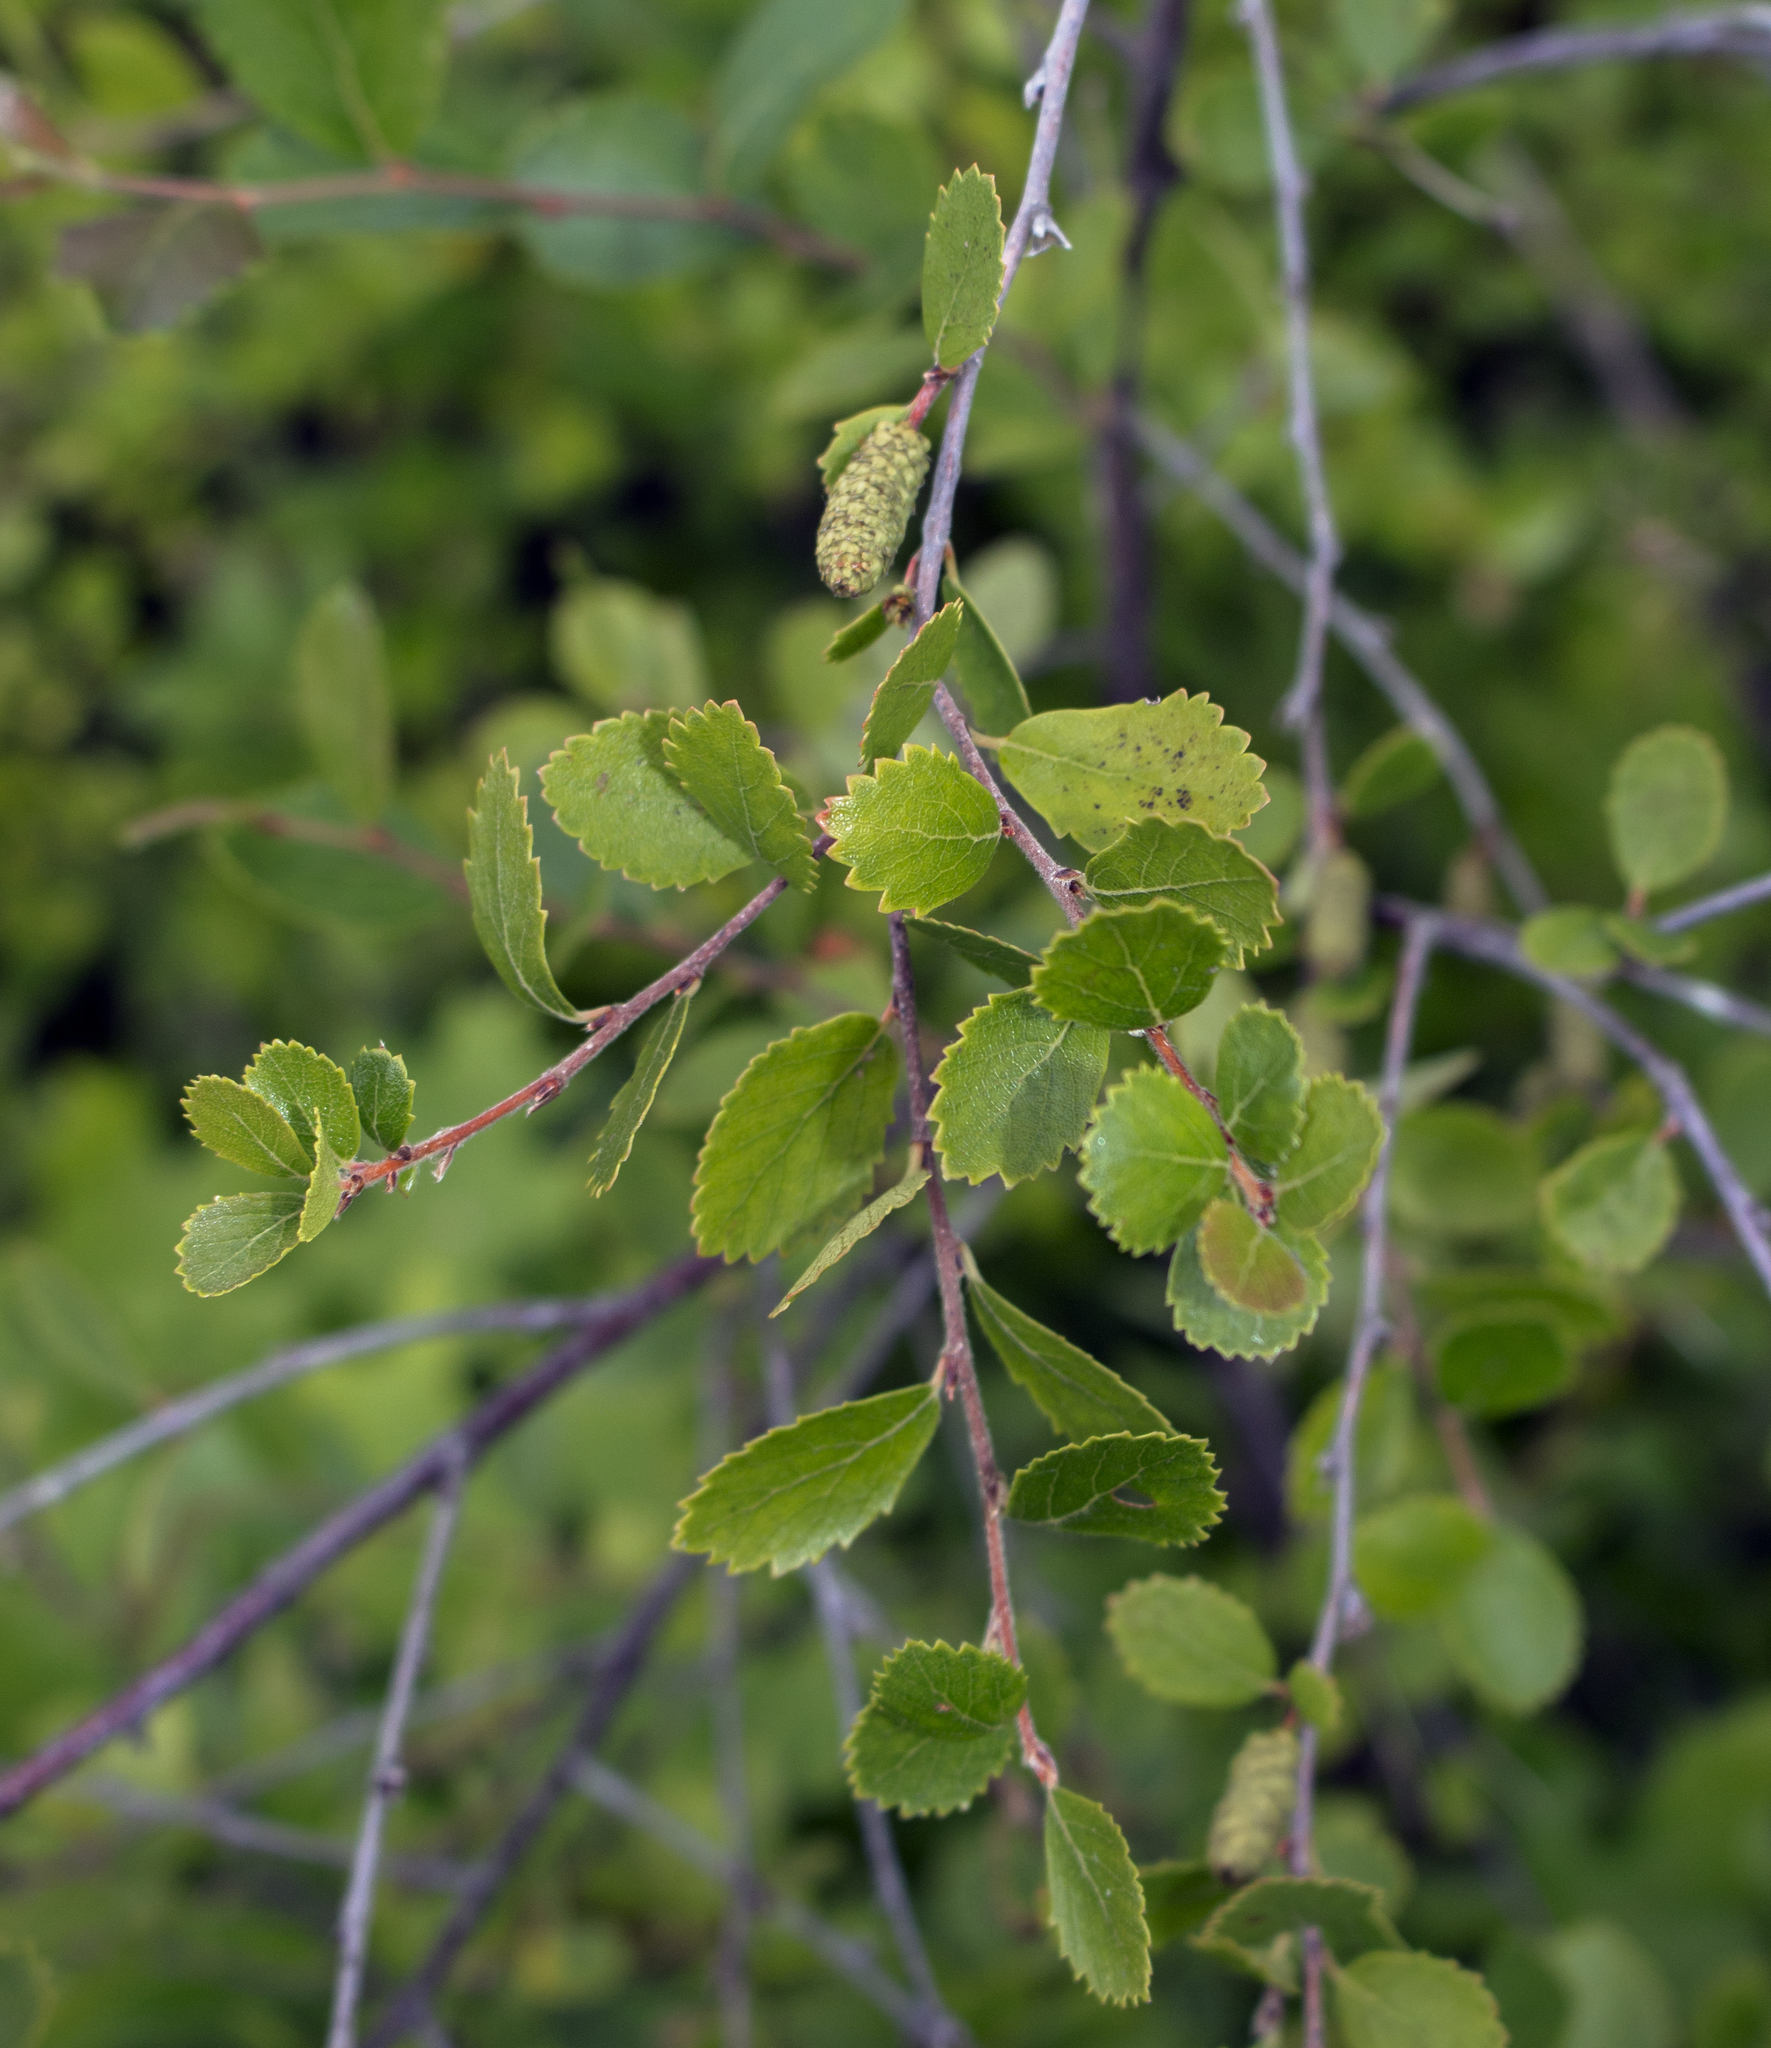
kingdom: Plantae
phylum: Tracheophyta
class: Magnoliopsida
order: Fagales
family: Betulaceae
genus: Betula
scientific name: Betula pumila
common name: Bog birch
